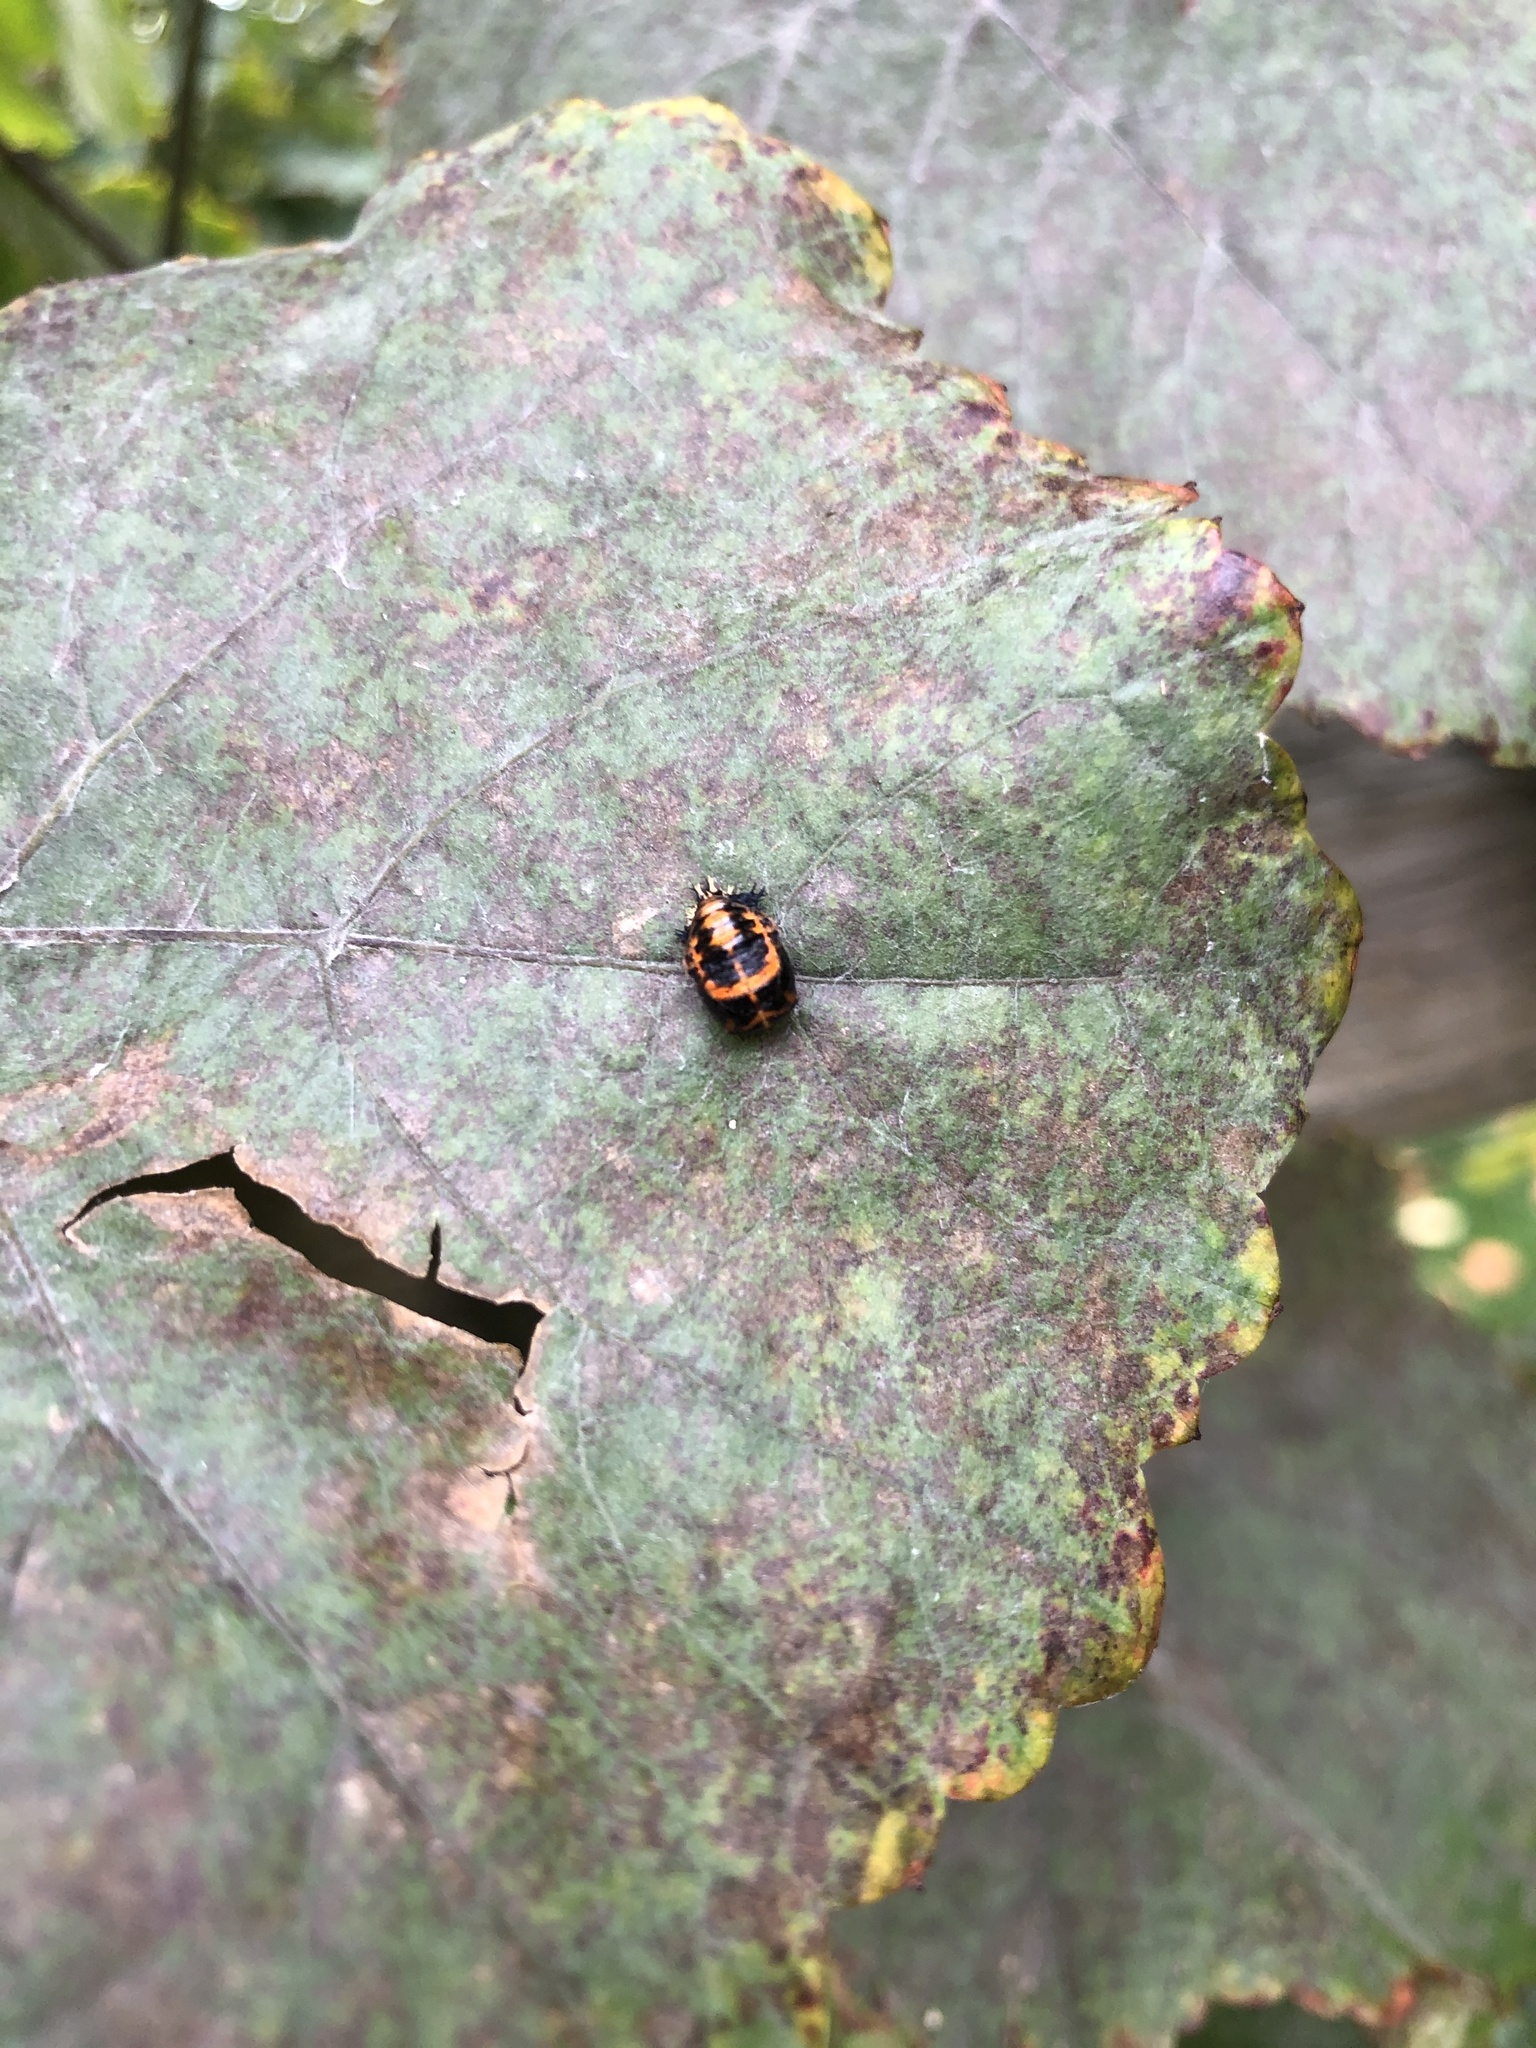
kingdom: Animalia
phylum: Arthropoda
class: Insecta
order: Coleoptera
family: Coccinellidae
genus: Harmonia
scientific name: Harmonia axyridis
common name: Harlequin ladybird
